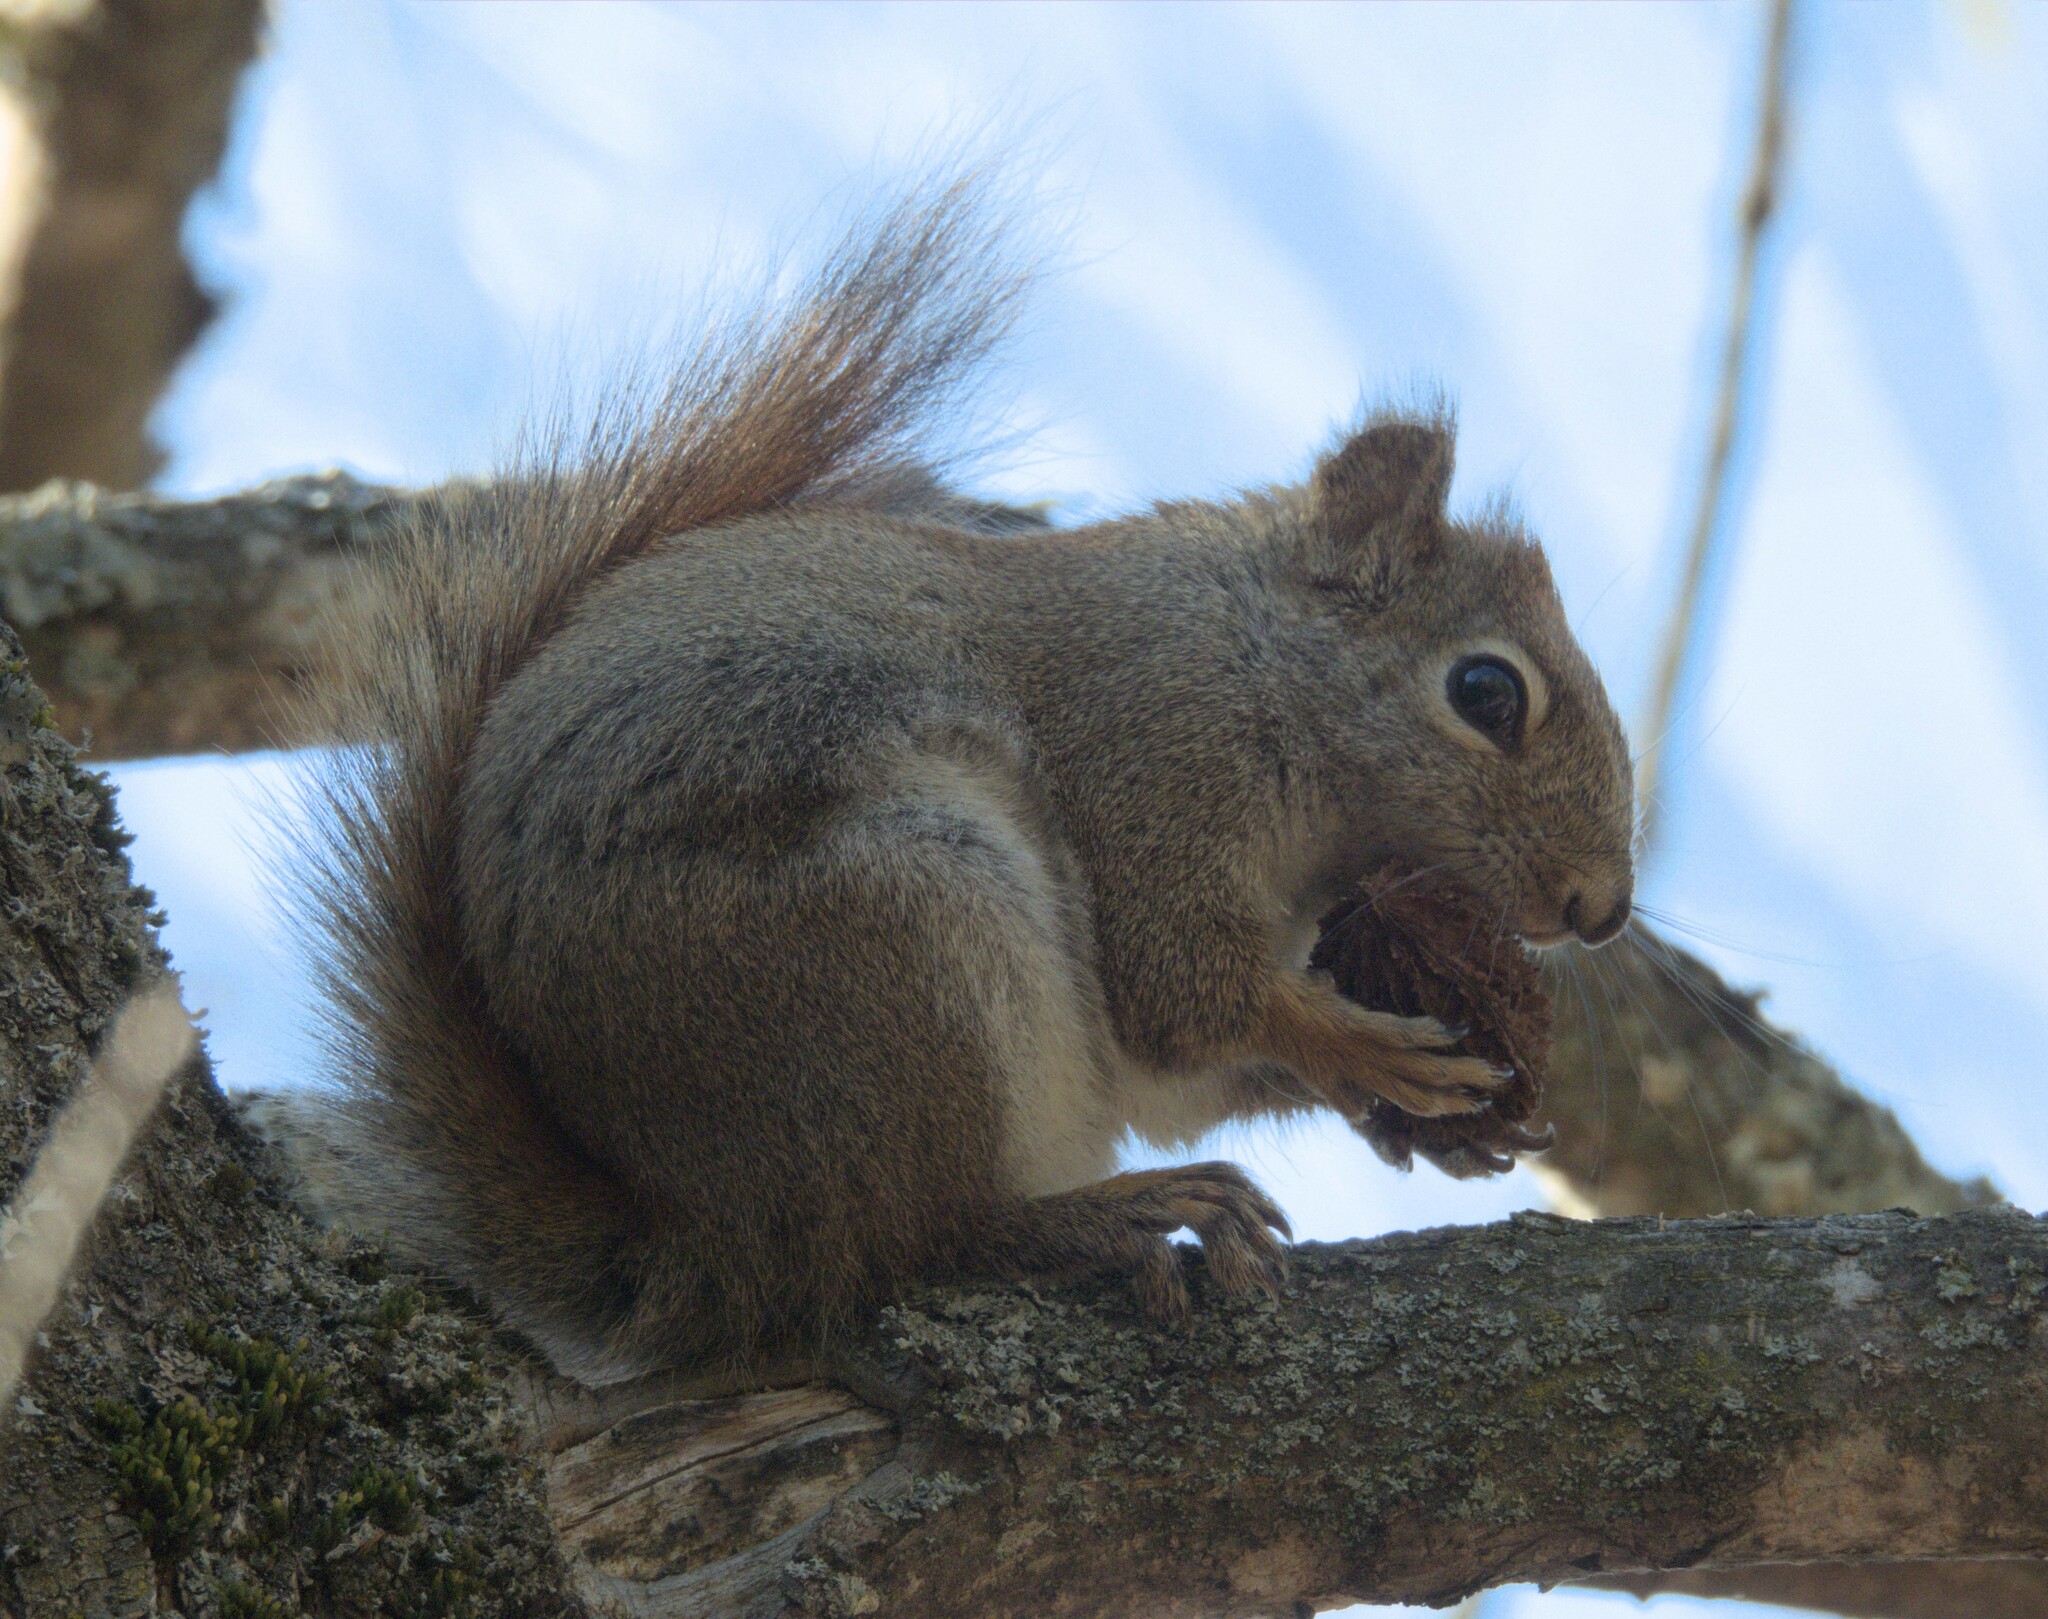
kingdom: Animalia
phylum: Chordata
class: Mammalia
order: Rodentia
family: Sciuridae
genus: Tamiasciurus
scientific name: Tamiasciurus hudsonicus
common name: Red squirrel
